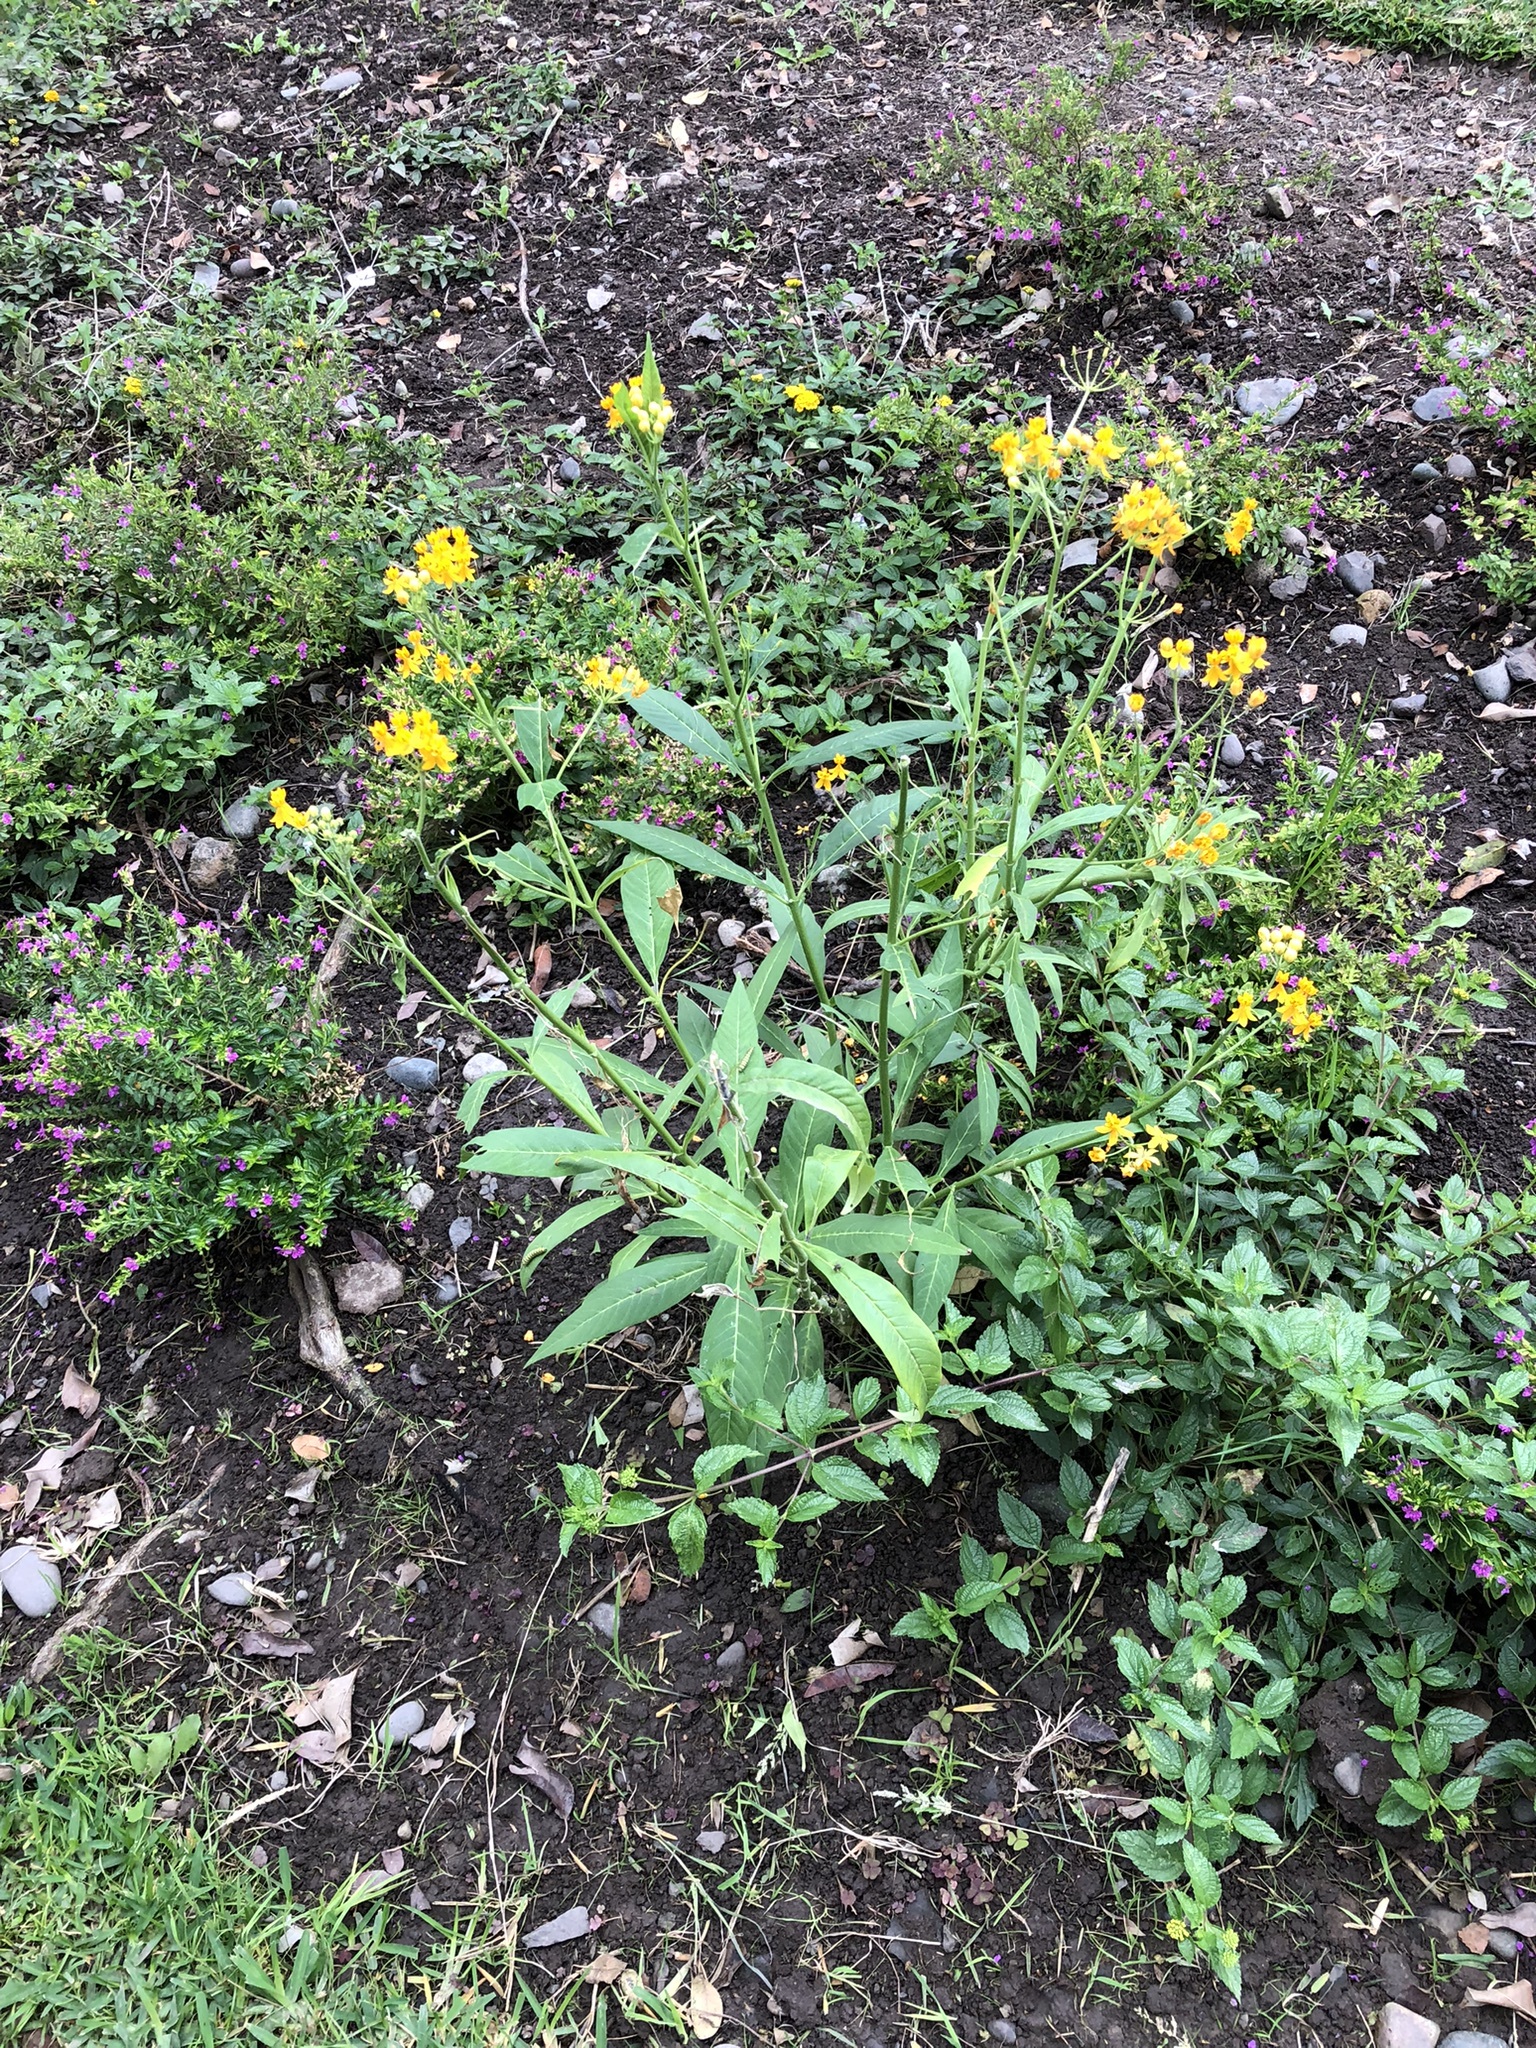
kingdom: Plantae
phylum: Tracheophyta
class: Magnoliopsida
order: Gentianales
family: Apocynaceae
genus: Asclepias
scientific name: Asclepias curassavica
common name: Bloodflower
